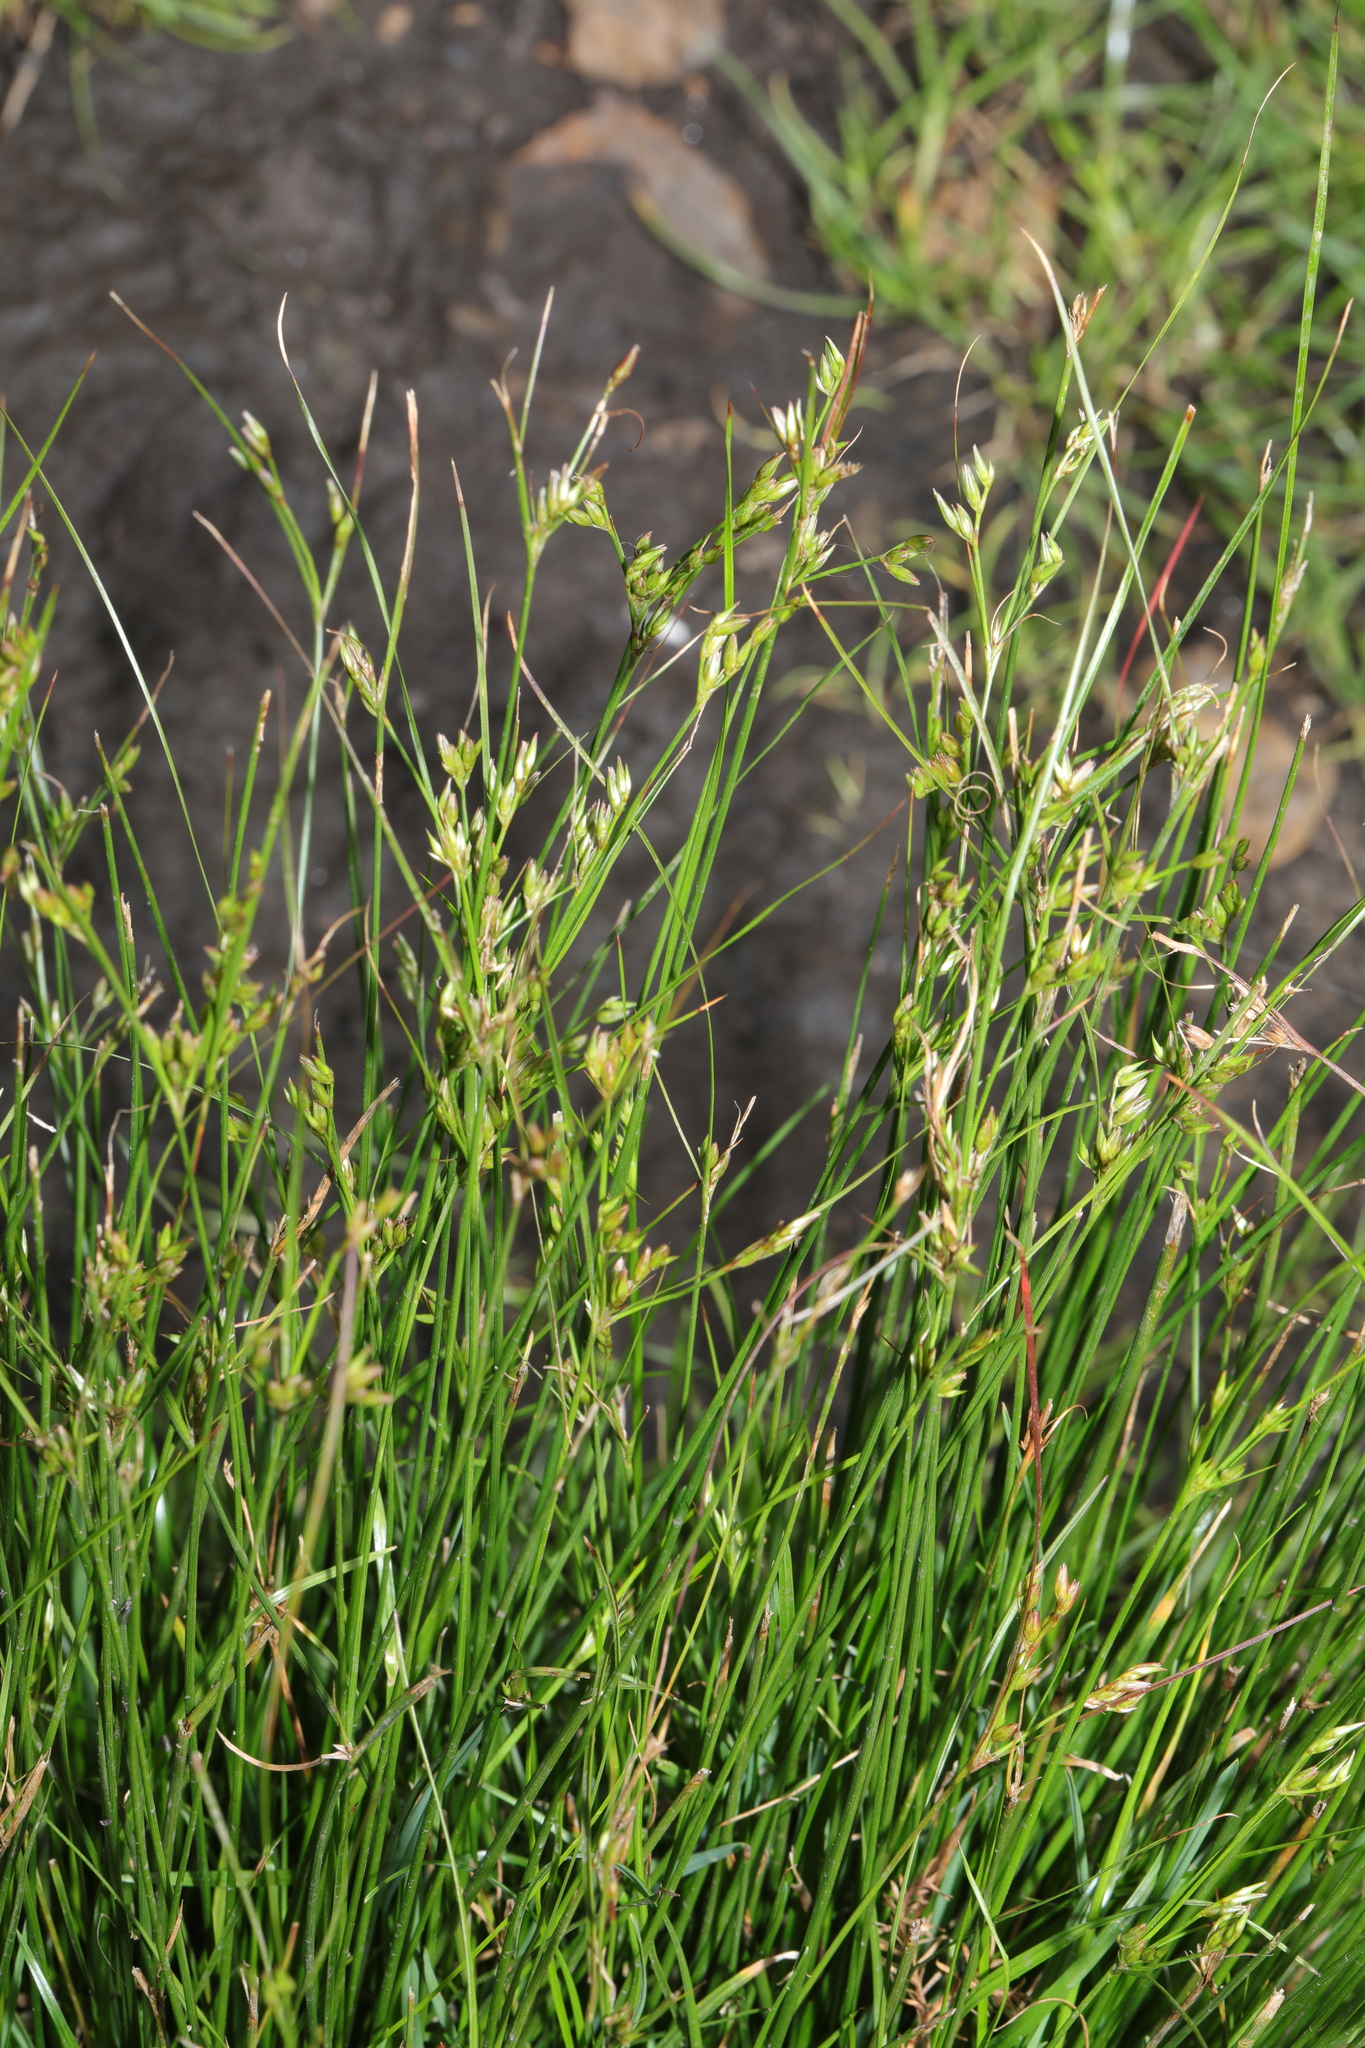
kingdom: Plantae
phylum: Tracheophyta
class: Liliopsida
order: Poales
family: Juncaceae
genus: Juncus
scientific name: Juncus tenuis
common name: Slender rush
